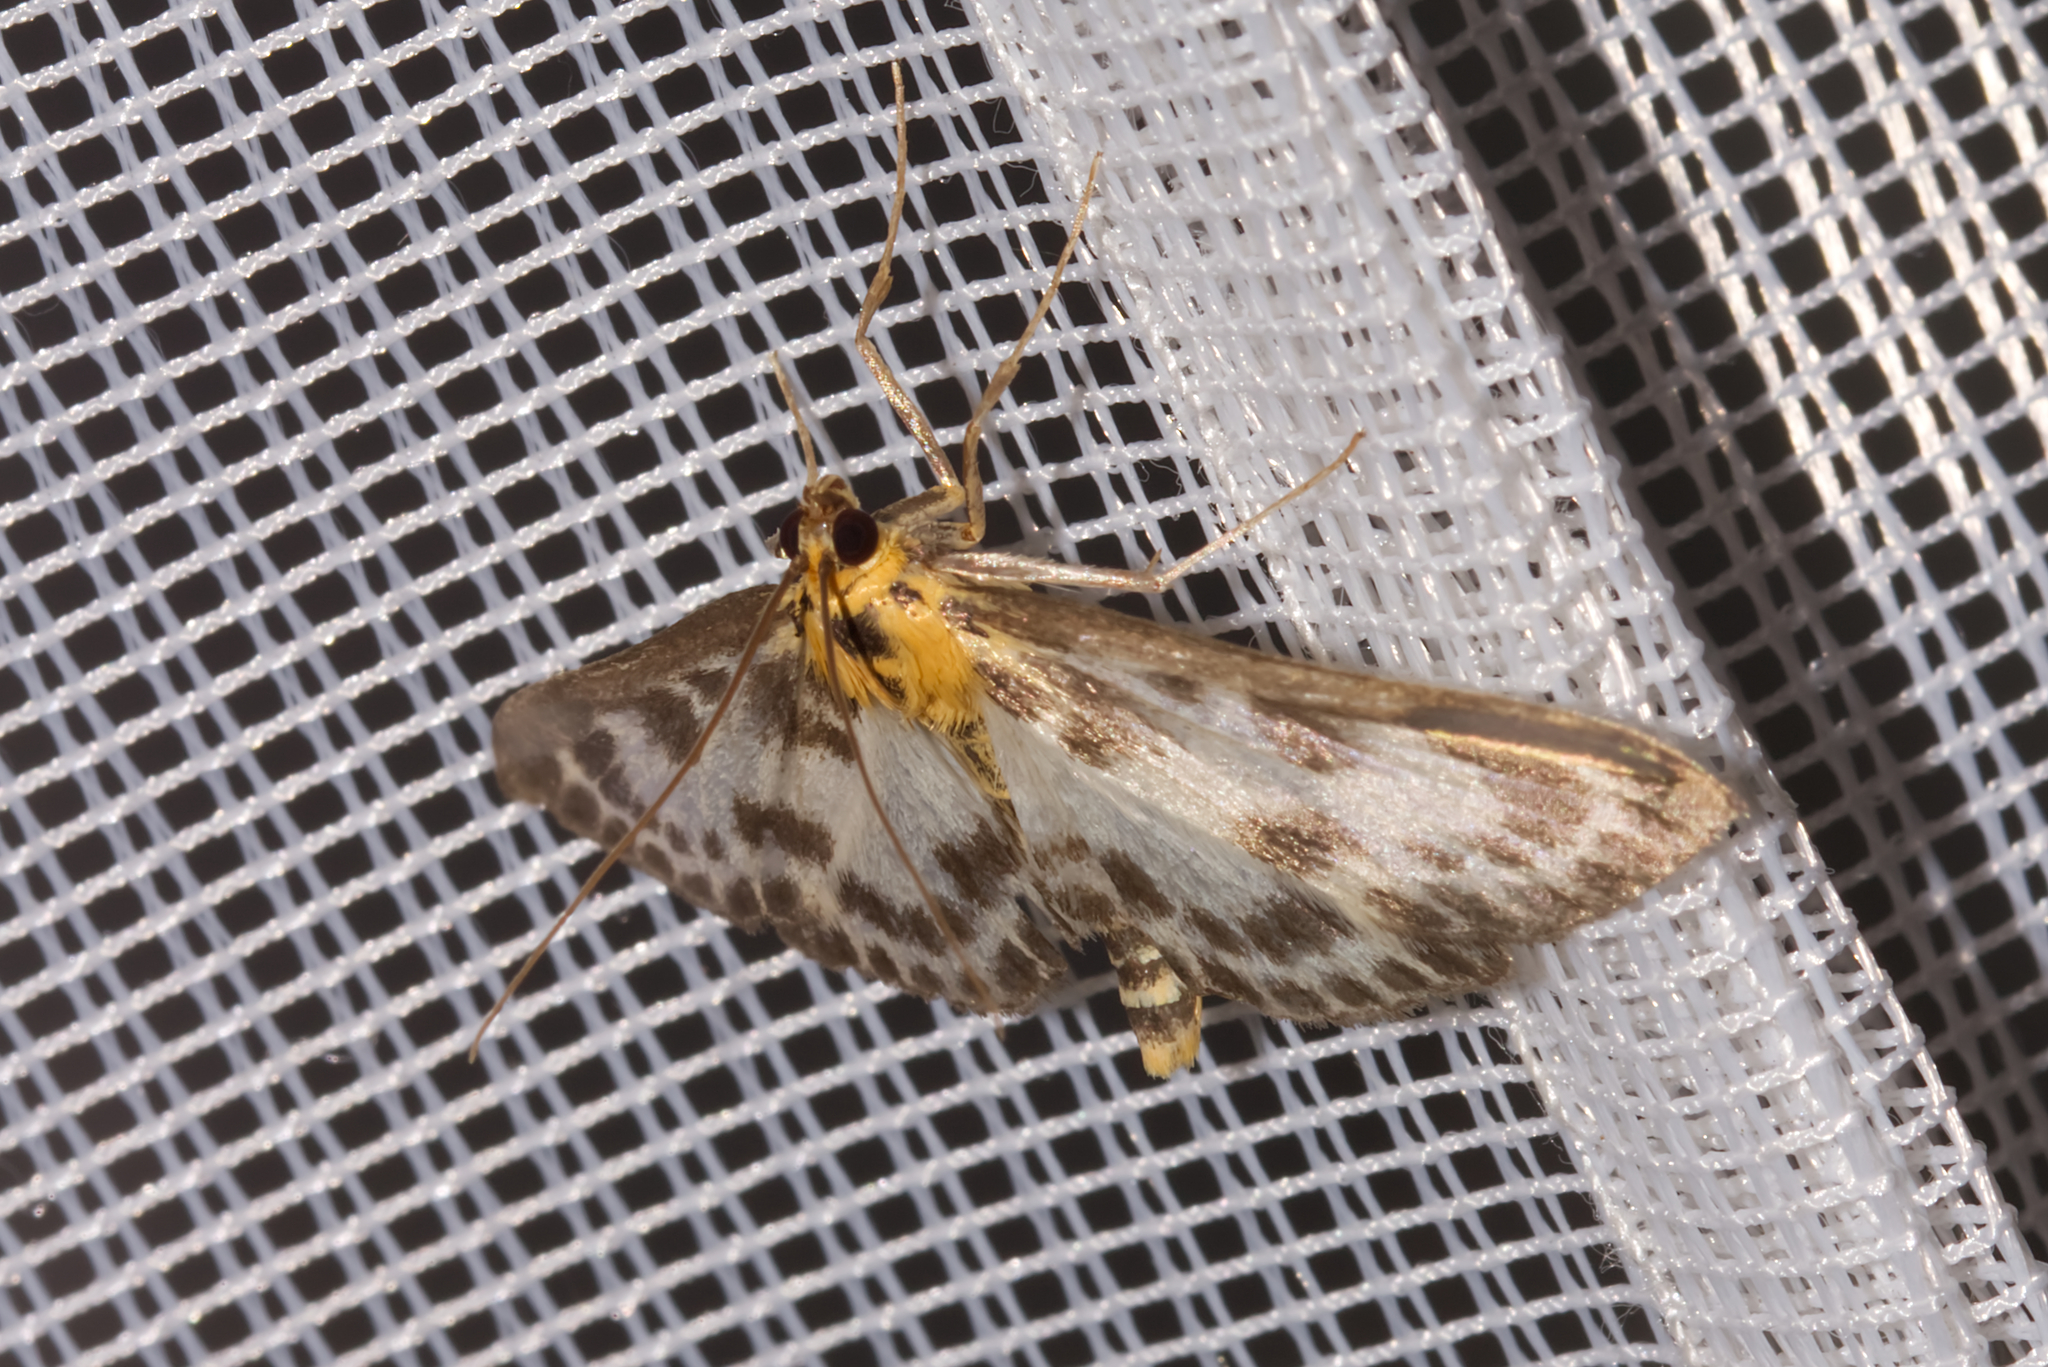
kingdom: Animalia
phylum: Arthropoda
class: Insecta
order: Lepidoptera
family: Crambidae
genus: Anania
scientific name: Anania hortulata
